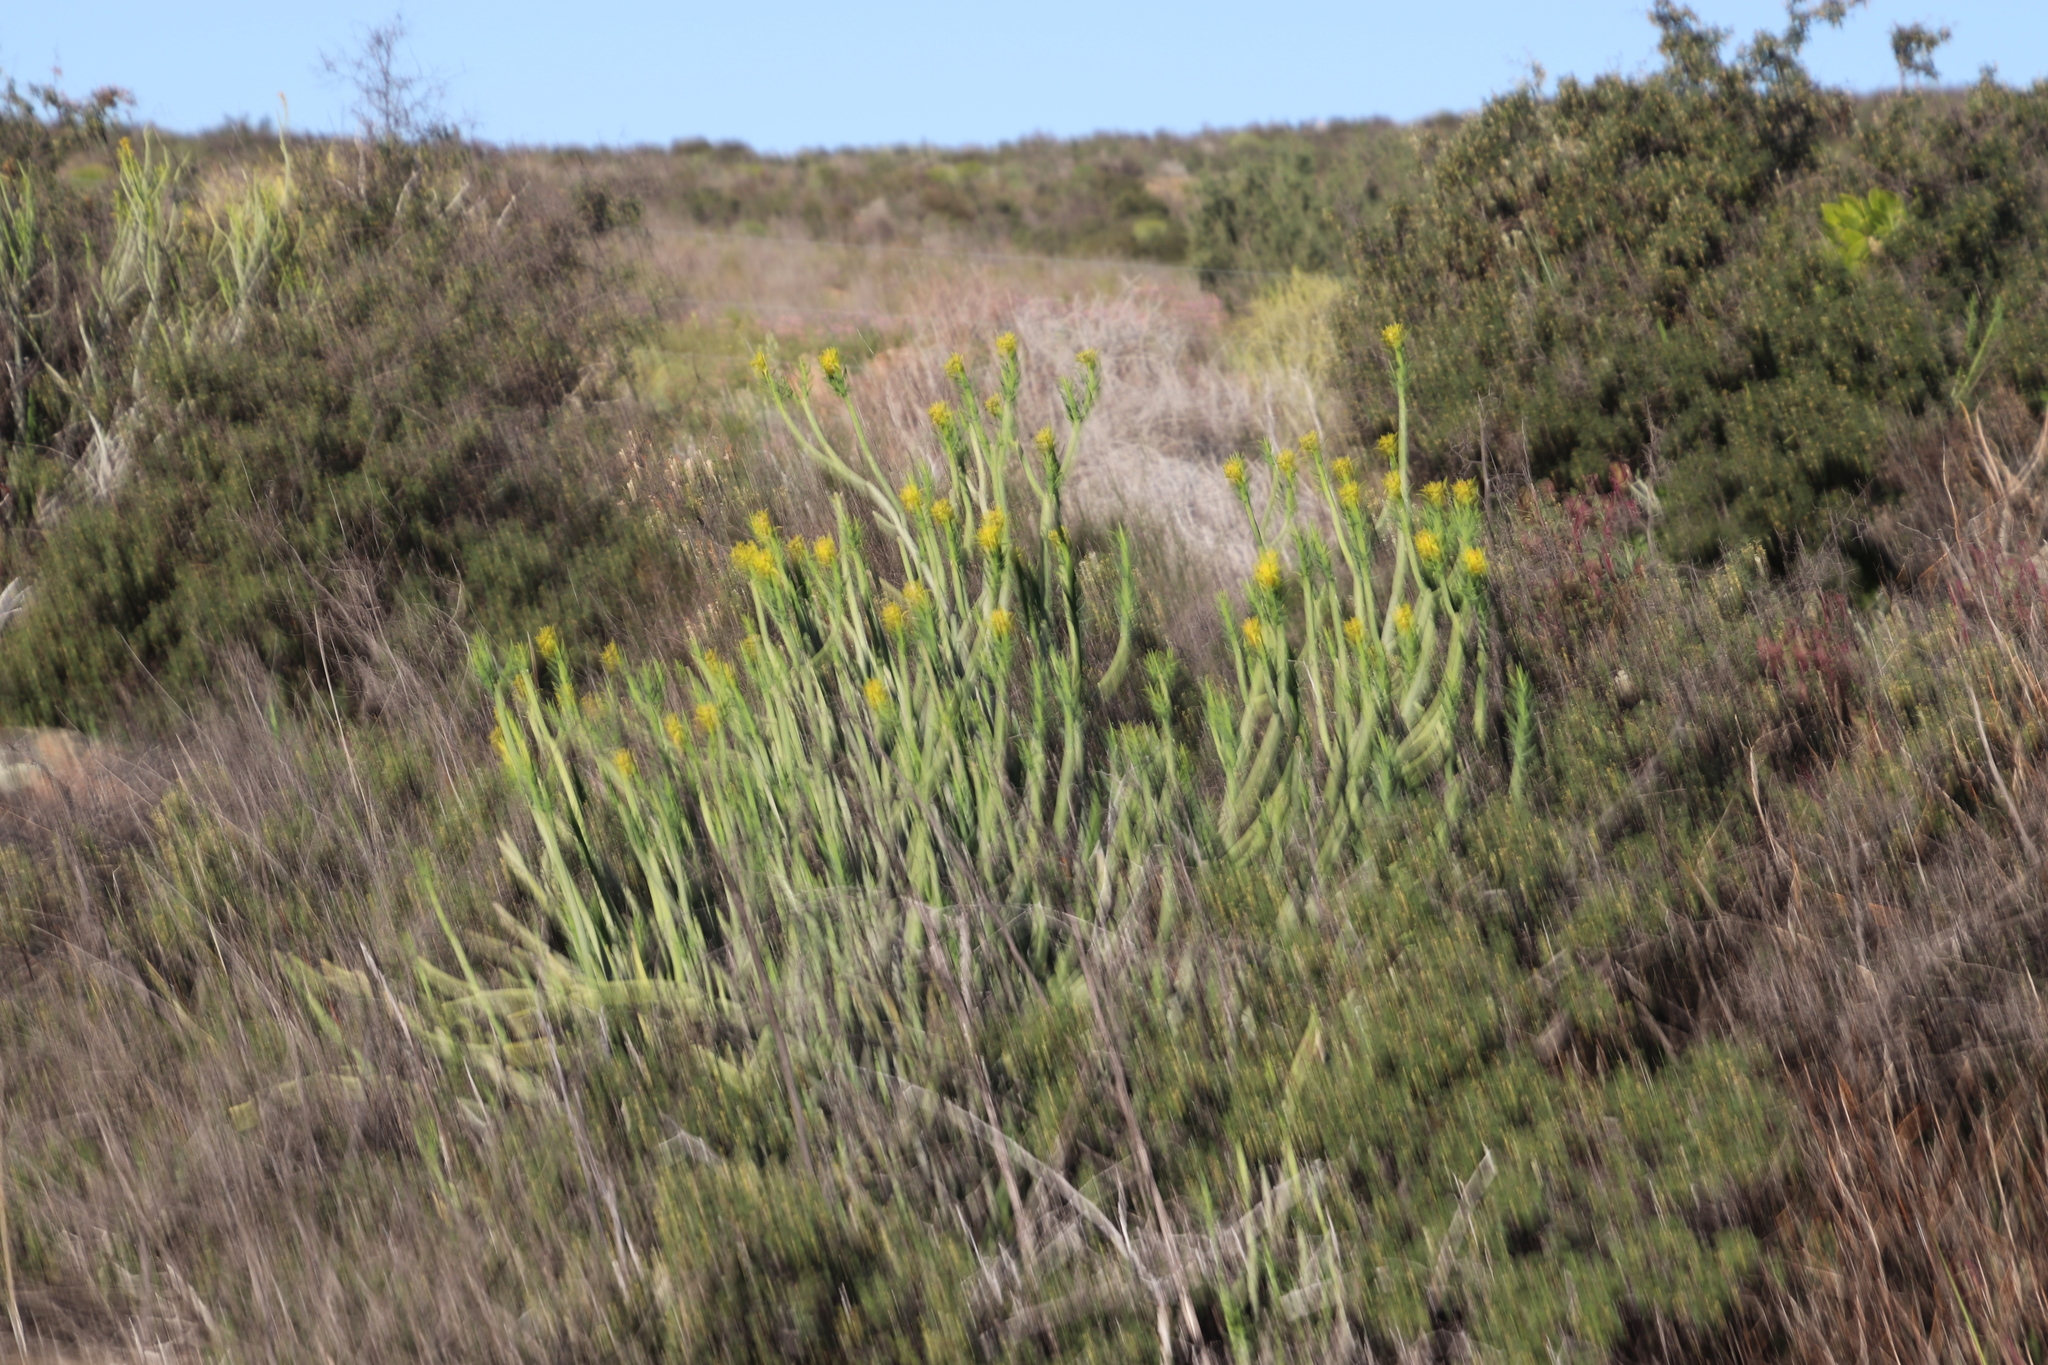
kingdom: Plantae
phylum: Tracheophyta
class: Magnoliopsida
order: Malpighiales
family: Euphorbiaceae
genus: Euphorbia
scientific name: Euphorbia mauritanica
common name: Jackal's-food
